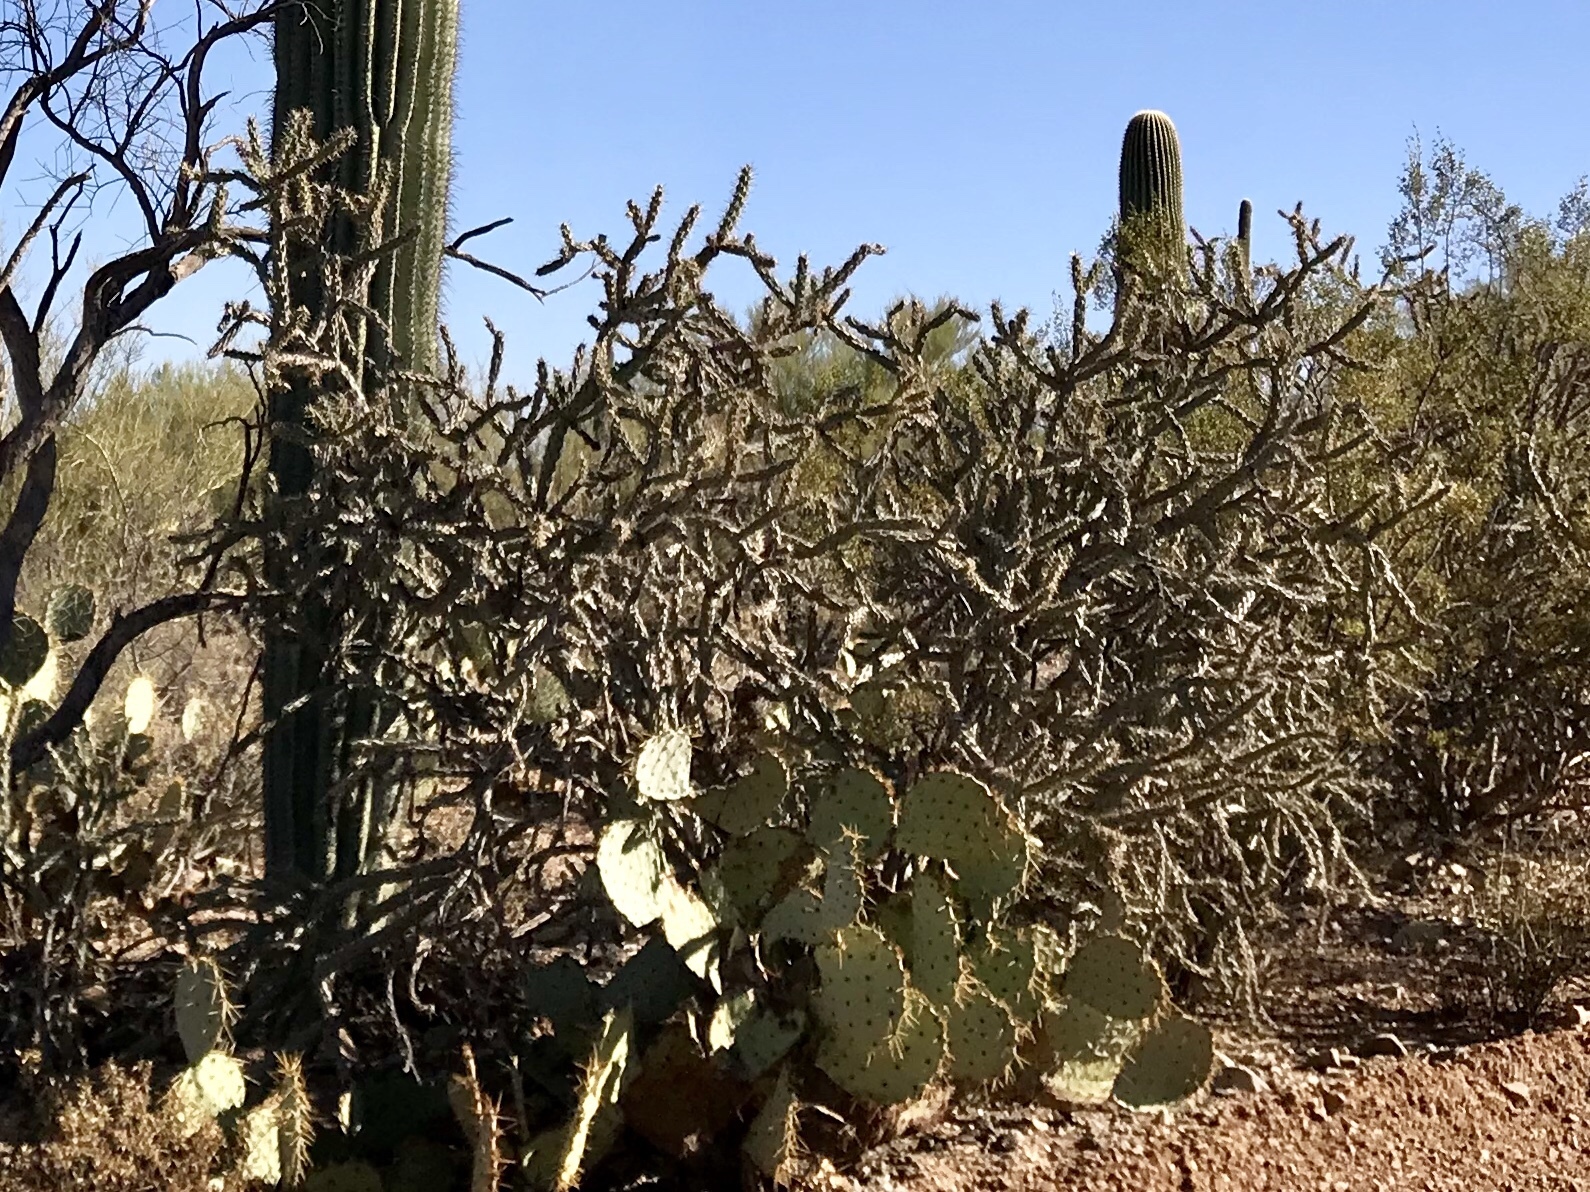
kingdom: Plantae
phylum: Tracheophyta
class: Magnoliopsida
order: Caryophyllales
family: Cactaceae
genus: Cylindropuntia
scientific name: Cylindropuntia thurberi
